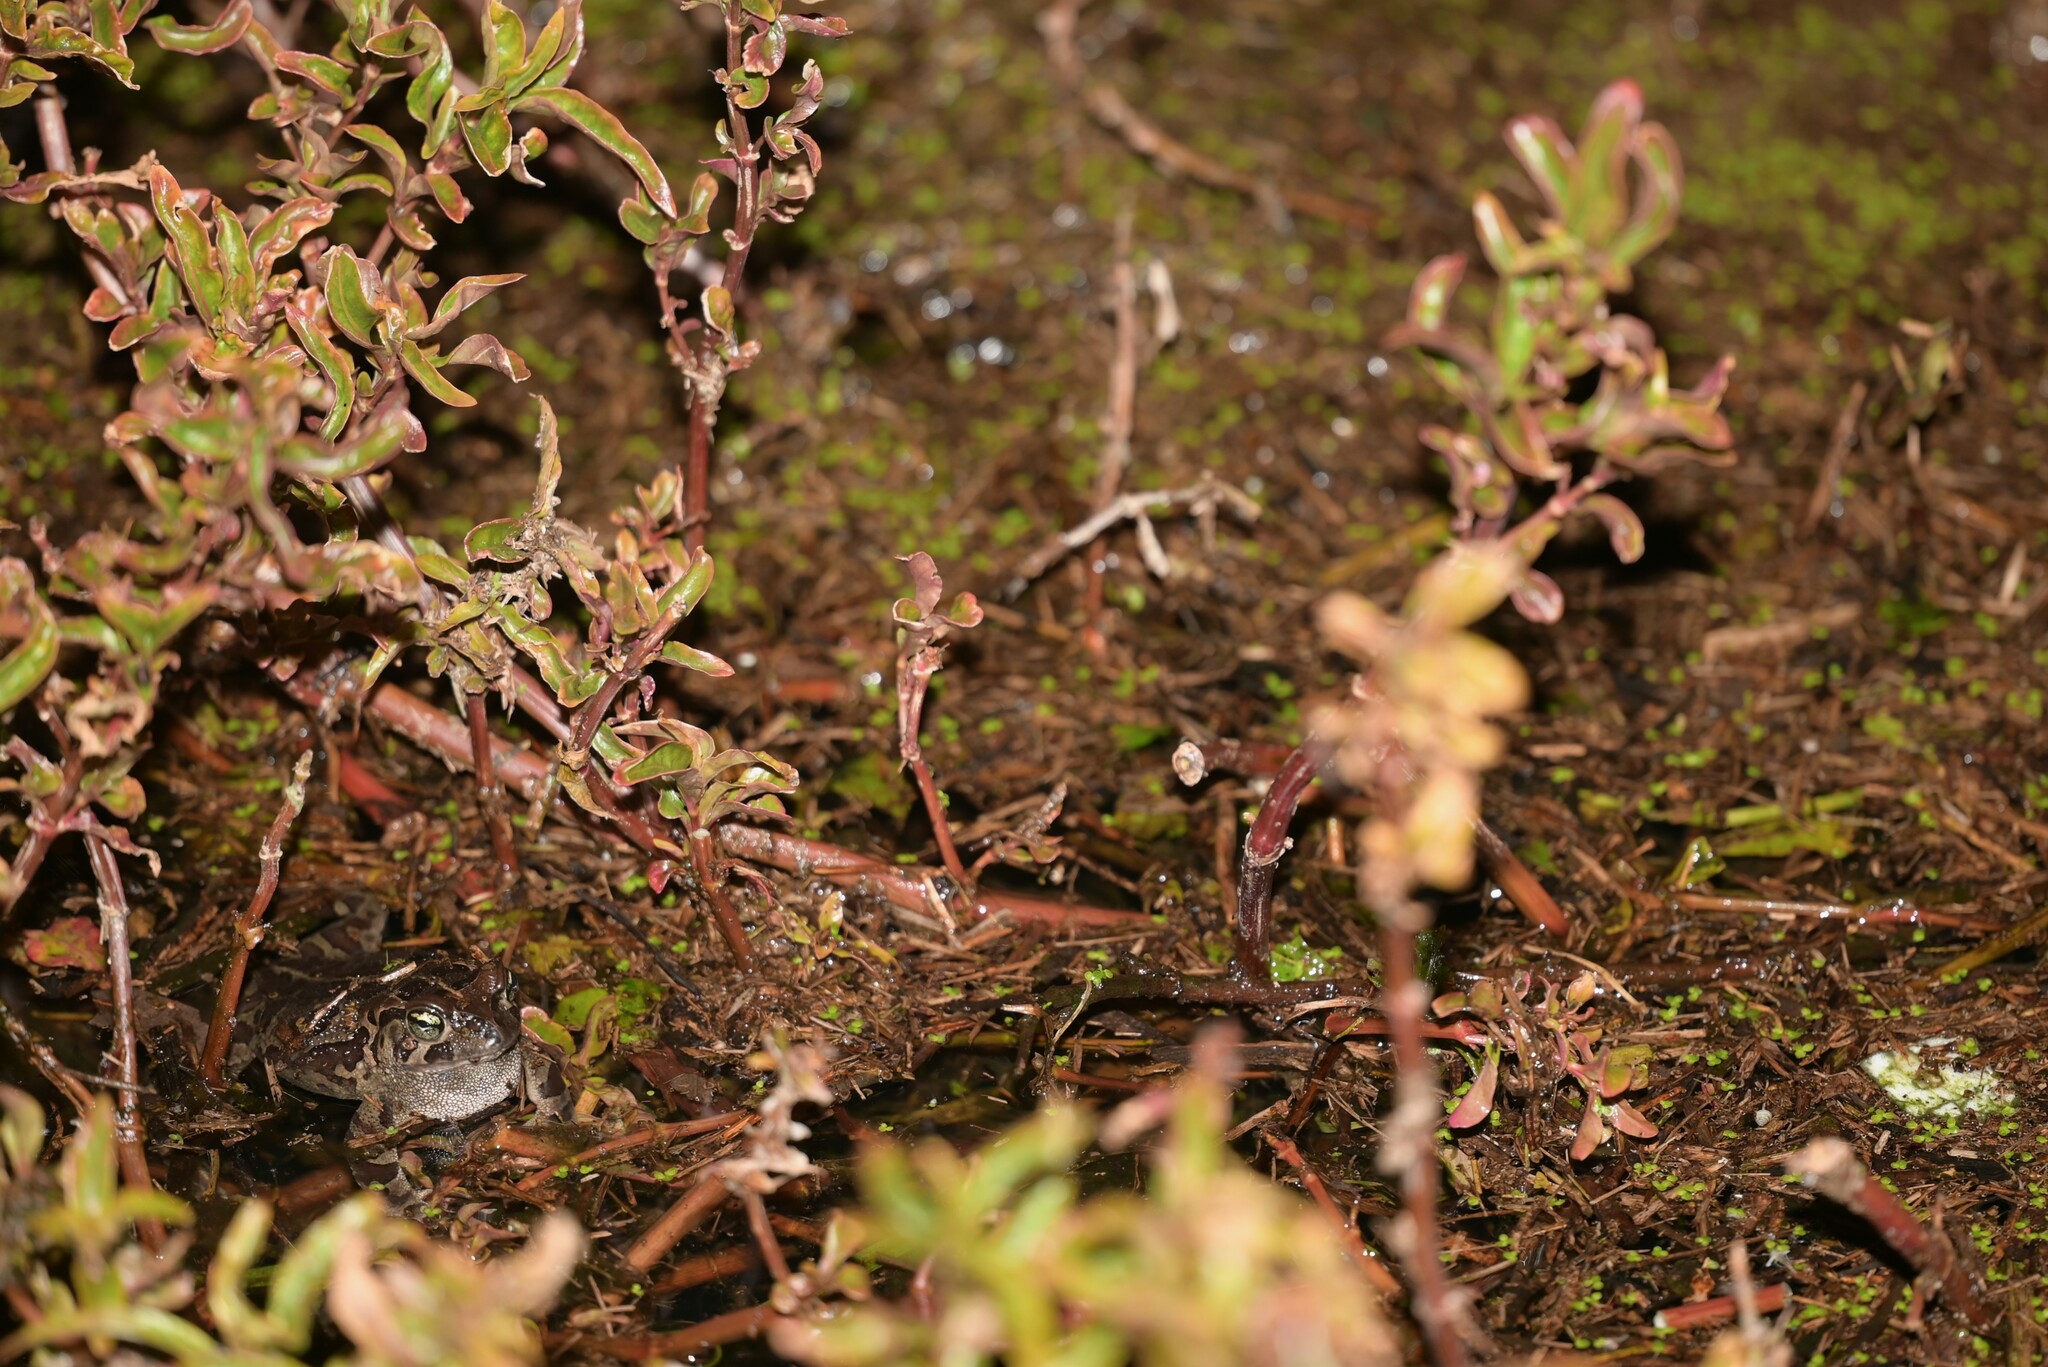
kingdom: Animalia
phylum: Chordata
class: Amphibia
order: Anura
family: Bufonidae
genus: Sclerophrys
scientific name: Sclerophrys pantherina
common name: Panther toad
